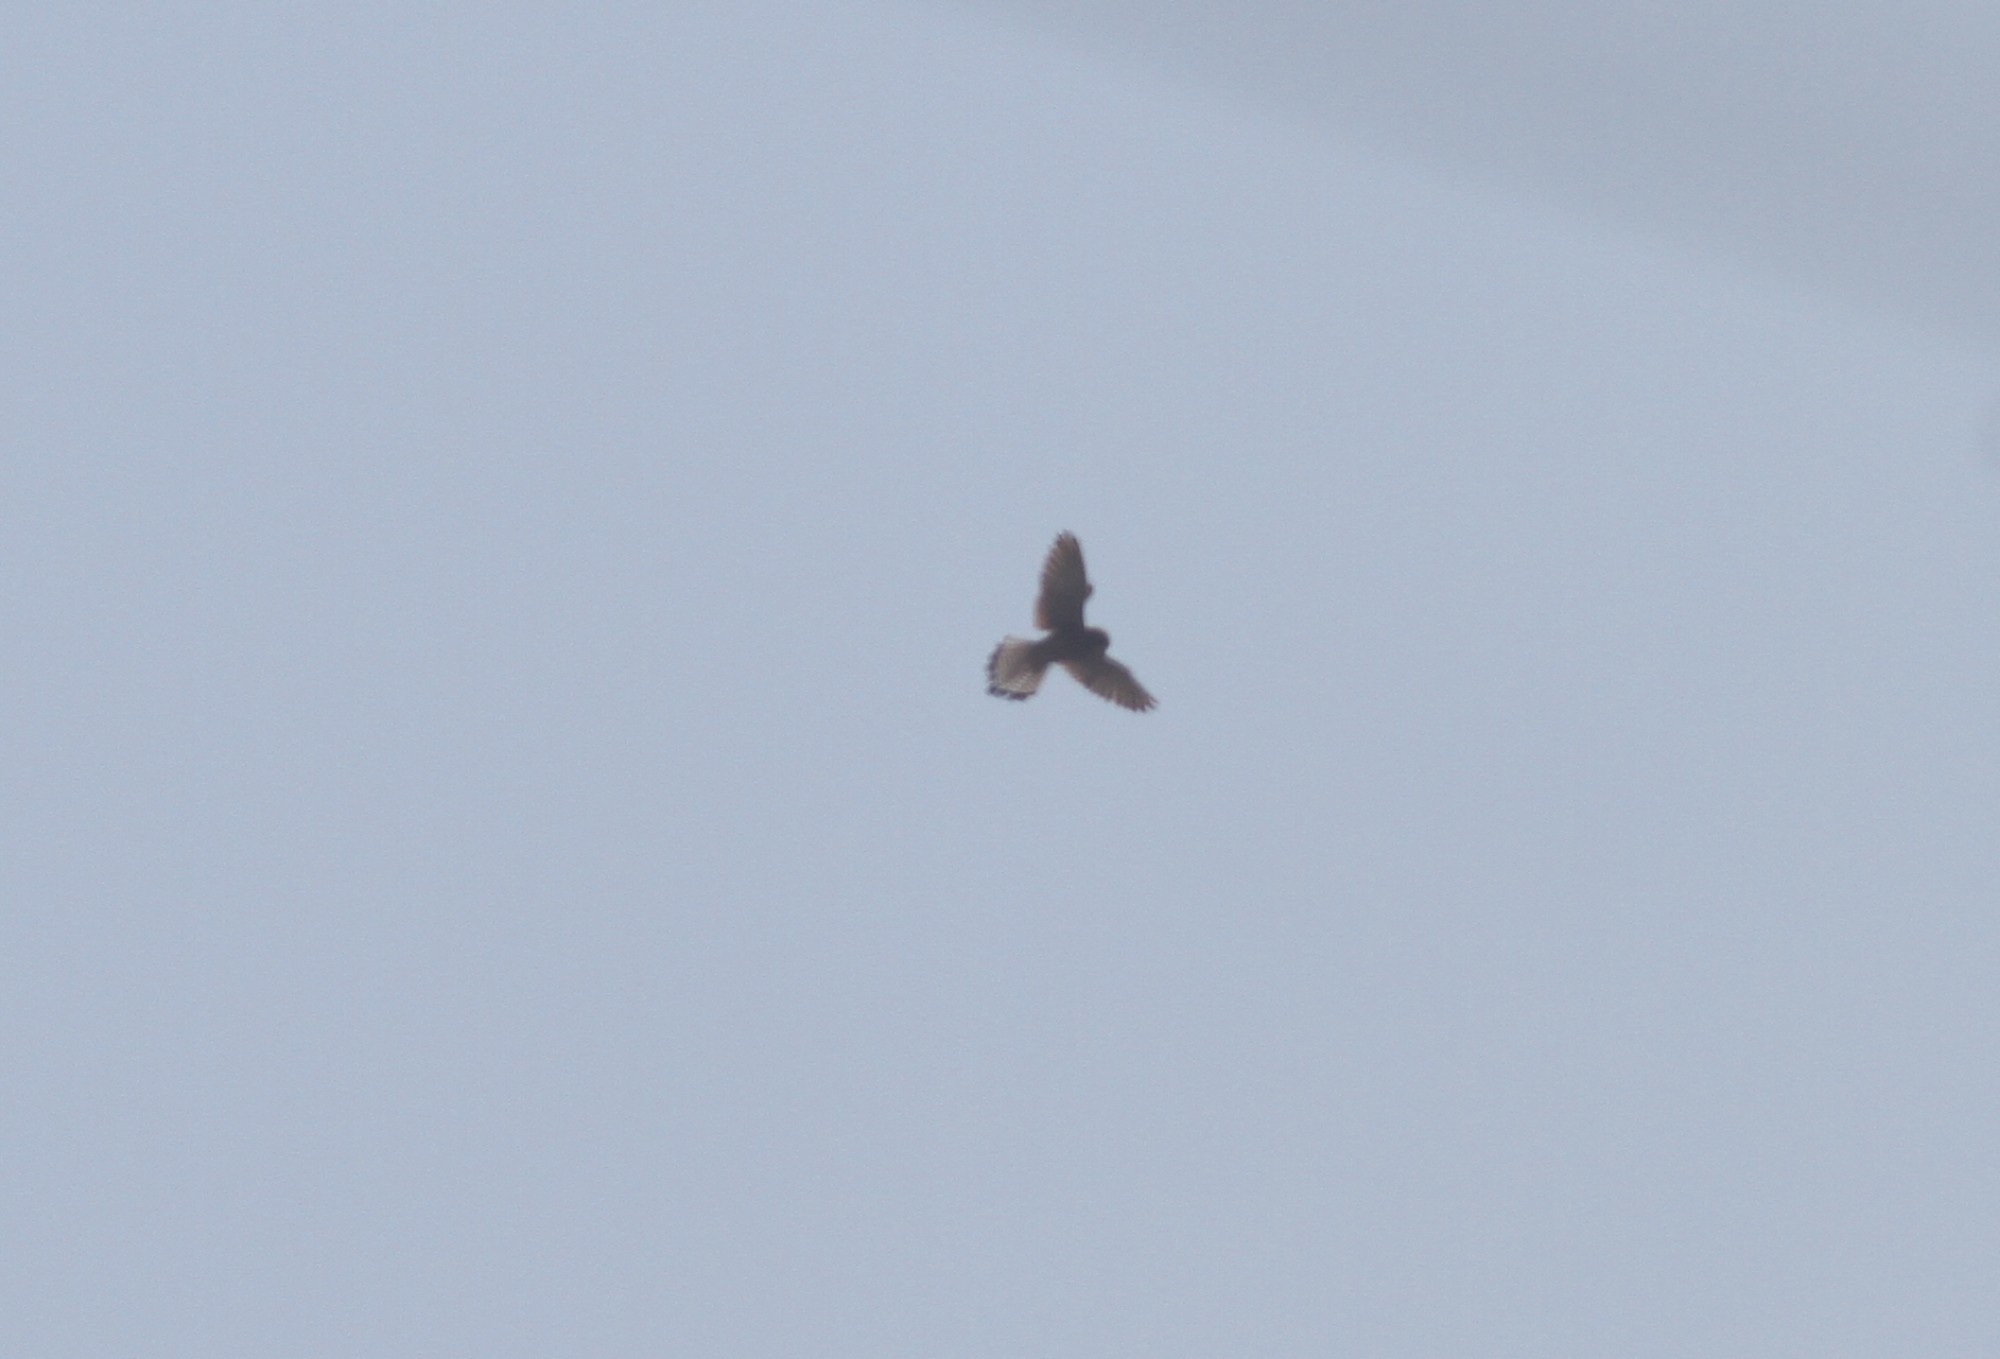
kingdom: Animalia
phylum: Chordata
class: Aves
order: Falconiformes
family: Falconidae
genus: Falco
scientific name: Falco tinnunculus
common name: Common kestrel
